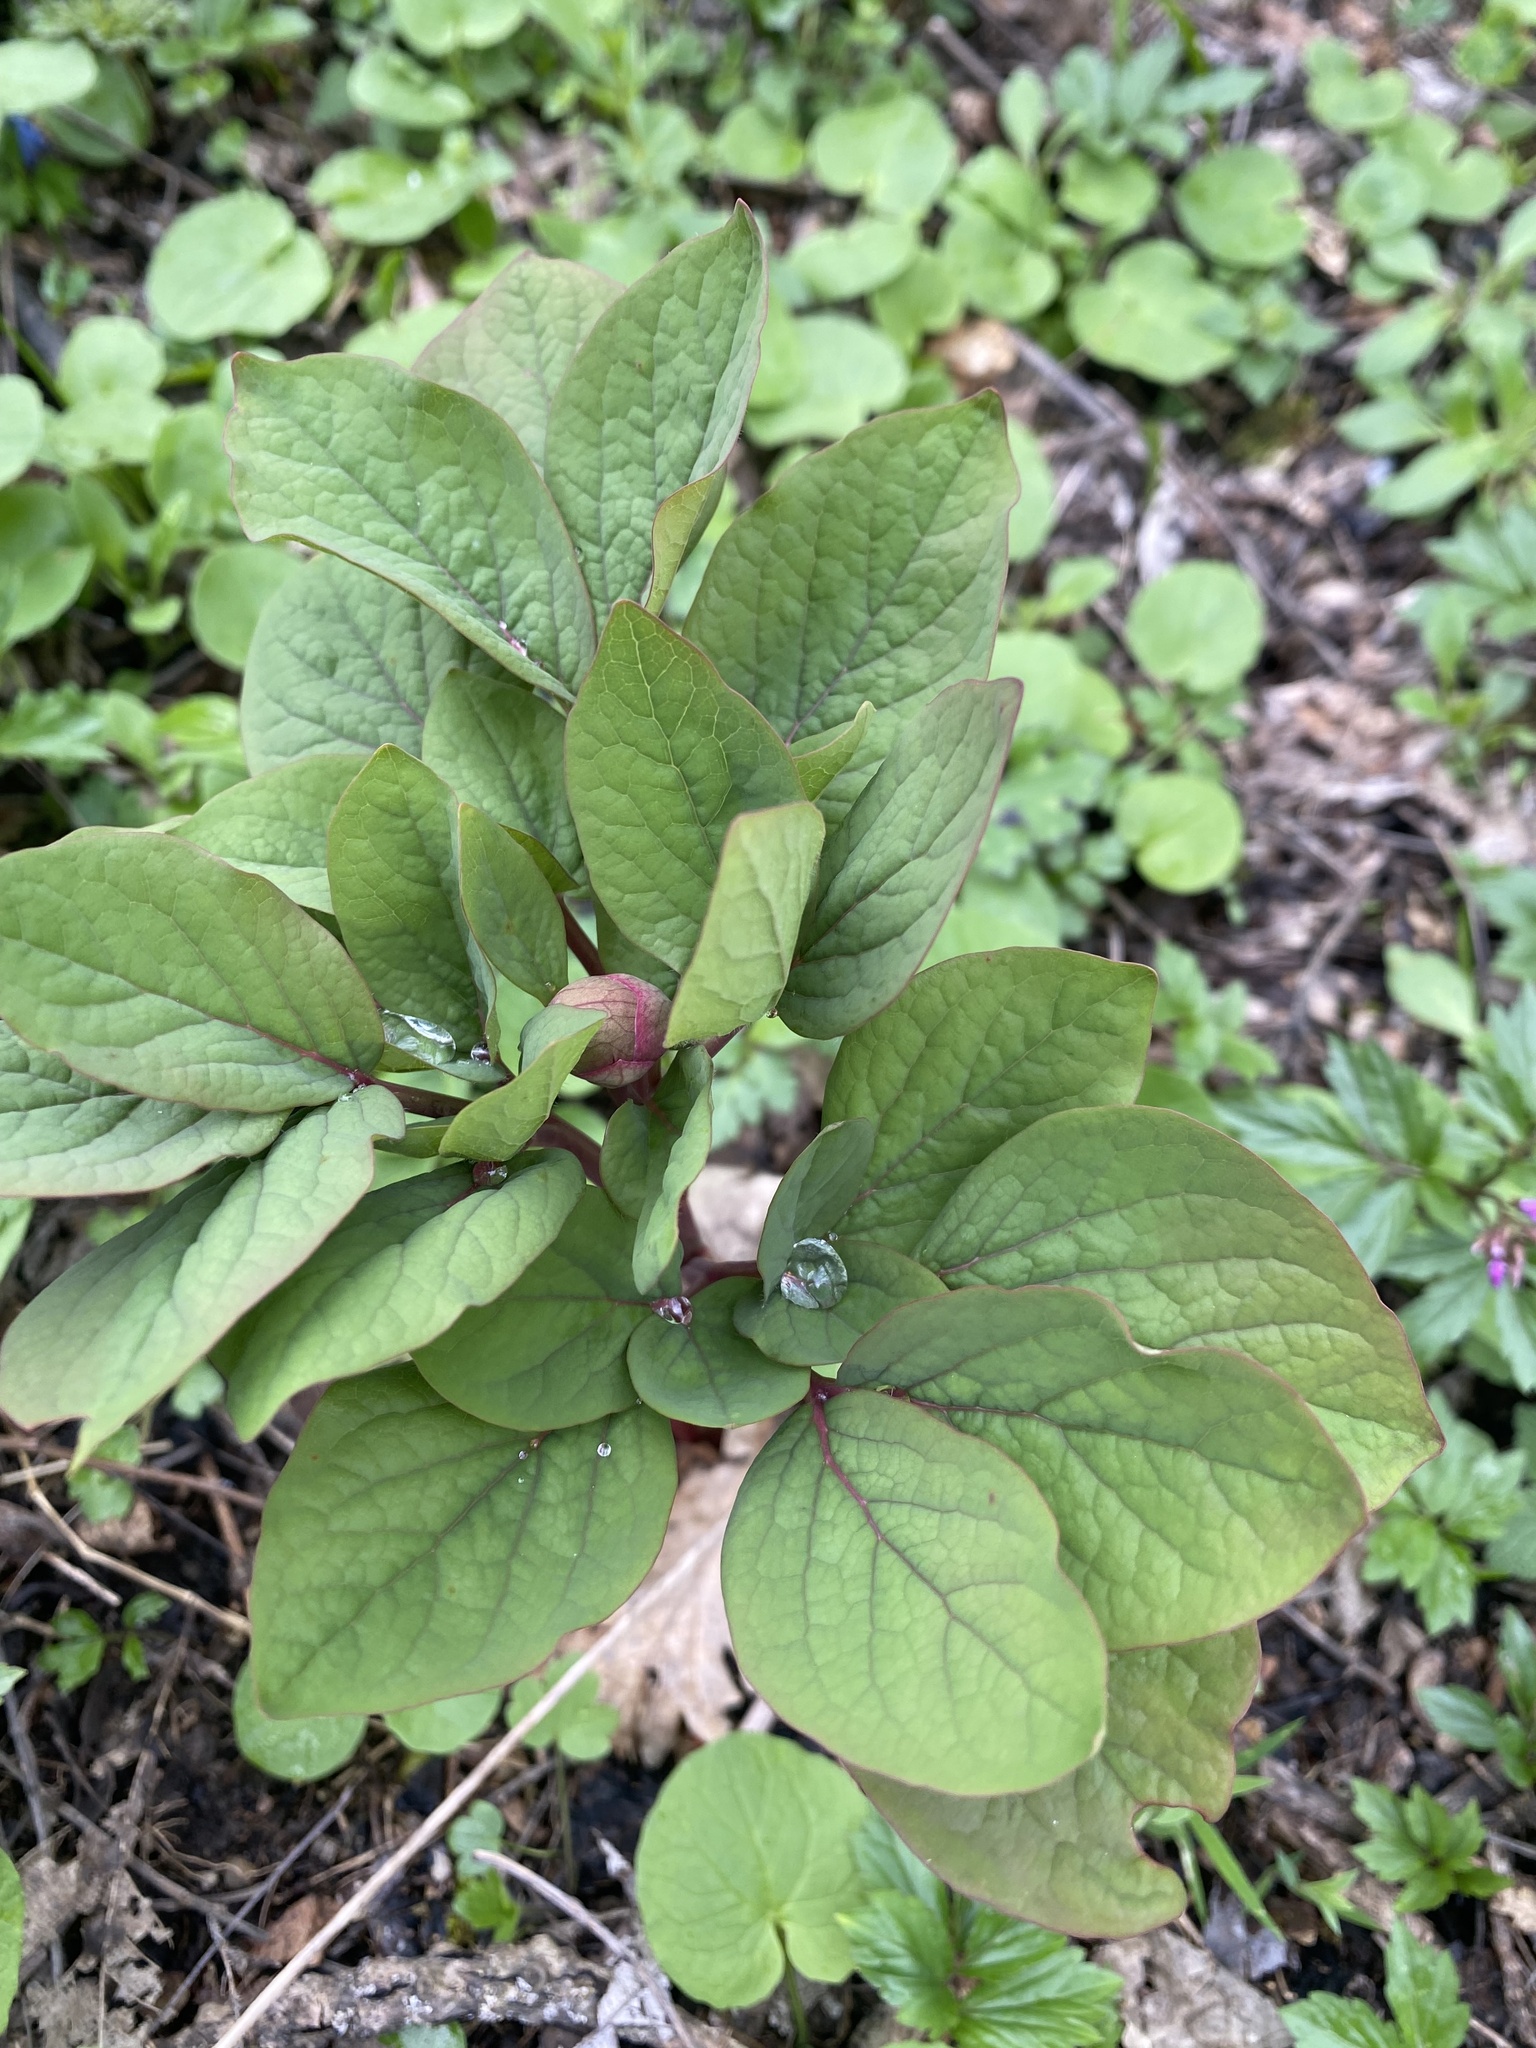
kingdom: Plantae
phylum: Tracheophyta
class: Magnoliopsida
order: Saxifragales
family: Paeoniaceae
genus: Paeonia
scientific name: Paeonia caucasica
